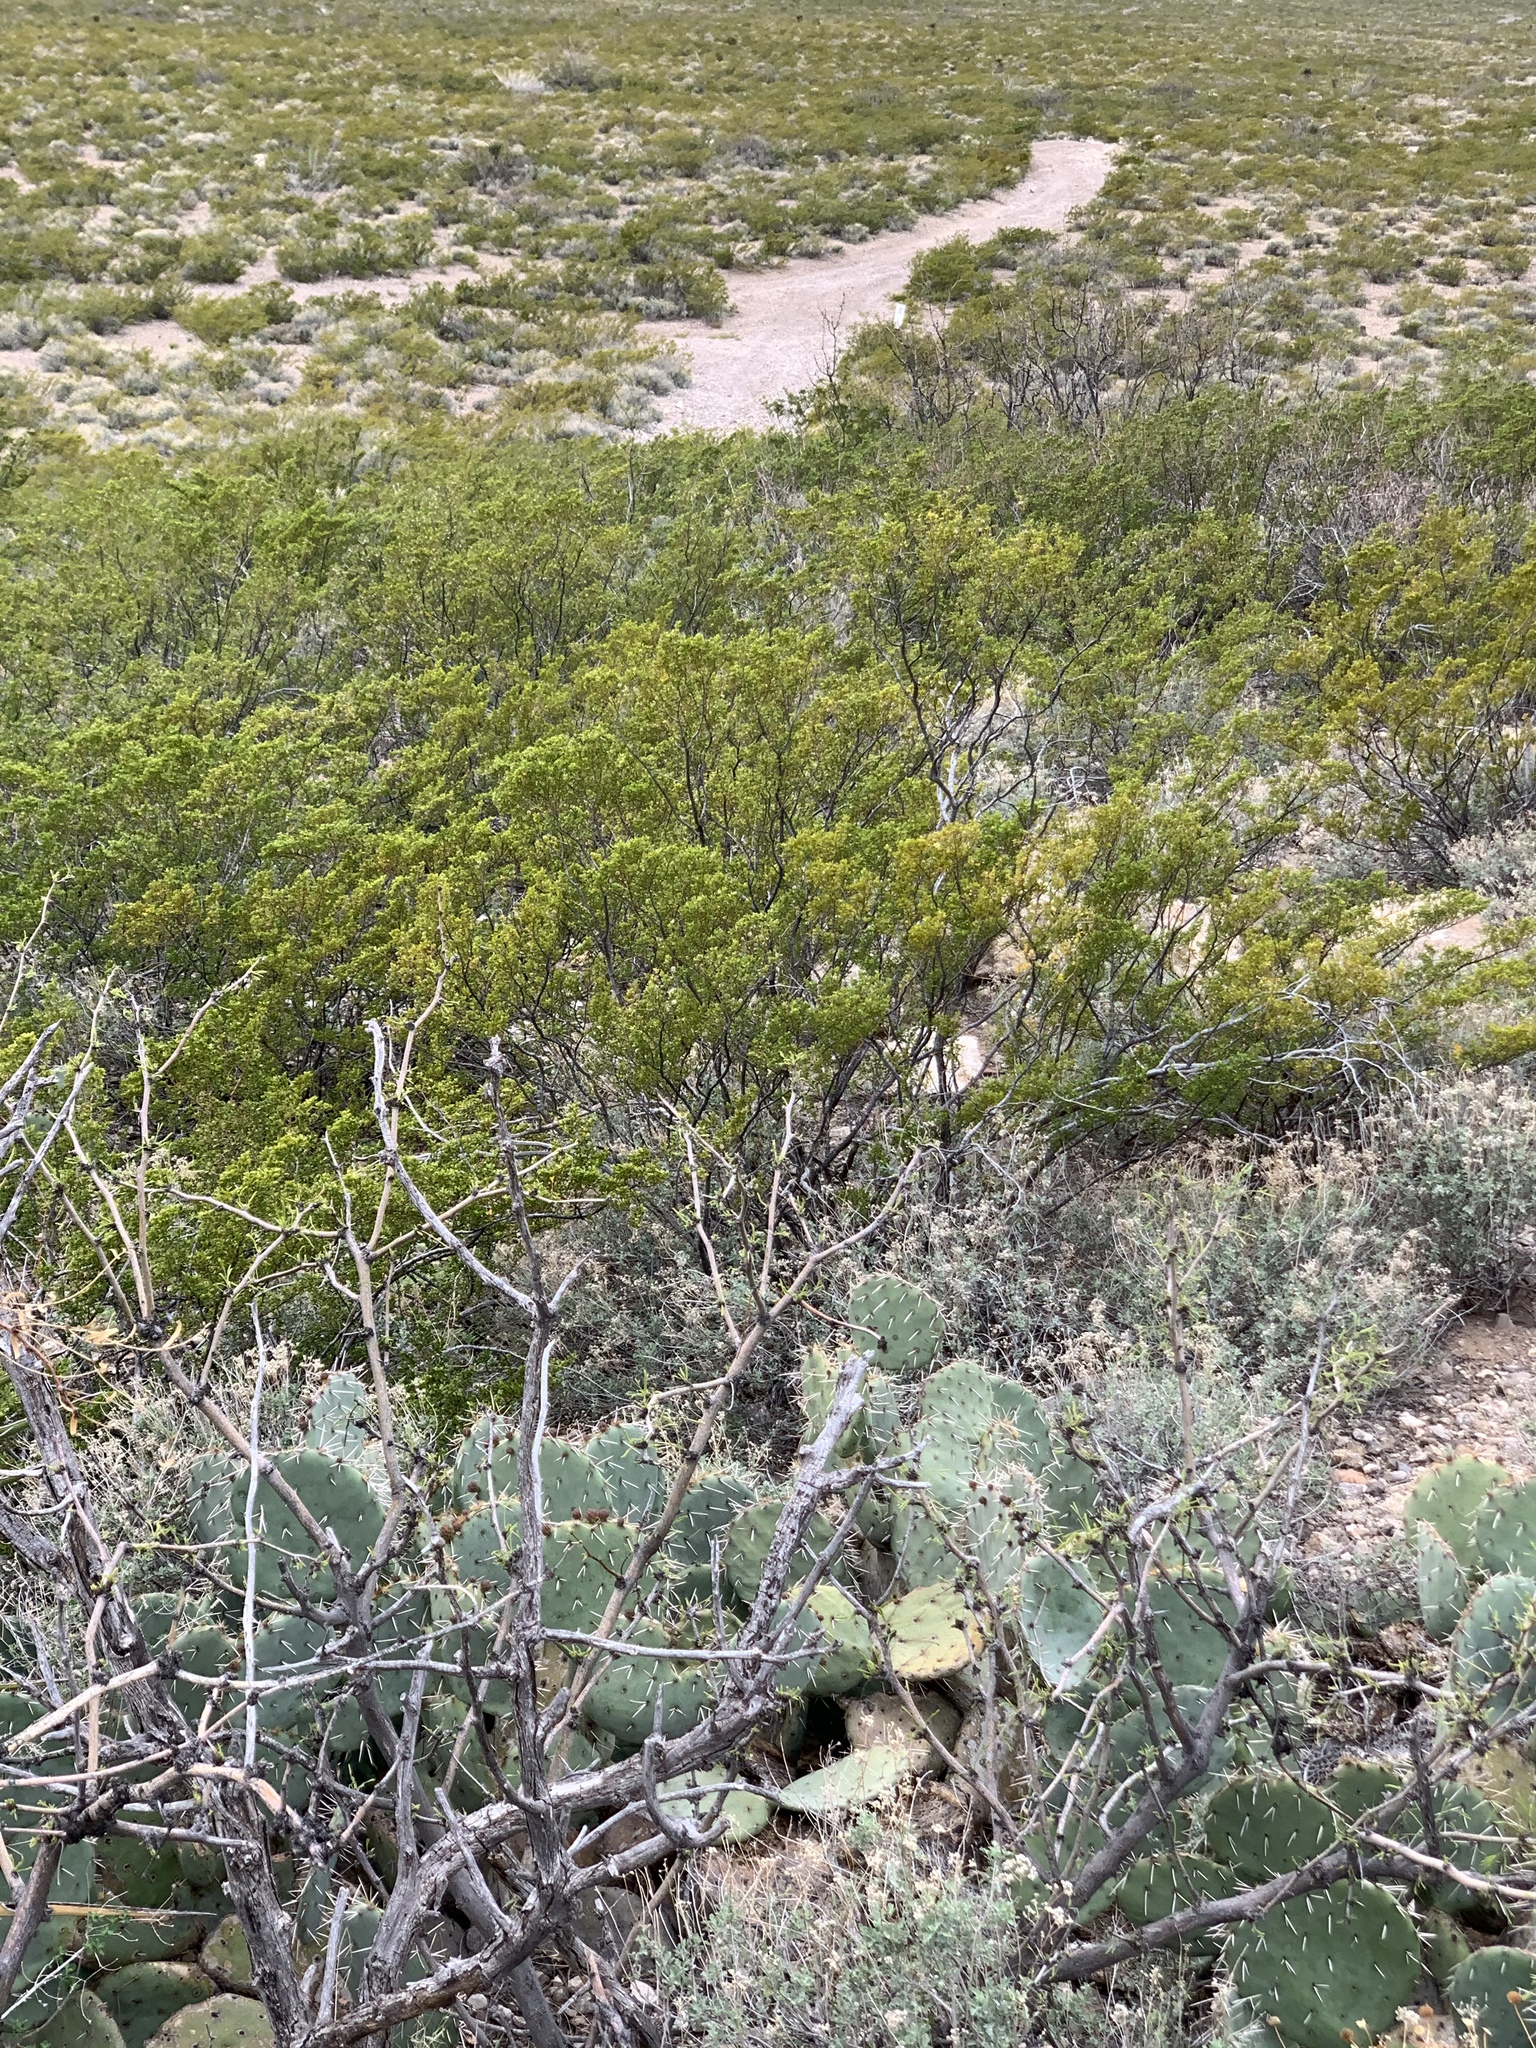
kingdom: Plantae
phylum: Tracheophyta
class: Magnoliopsida
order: Zygophyllales
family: Zygophyllaceae
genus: Larrea
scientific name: Larrea tridentata
